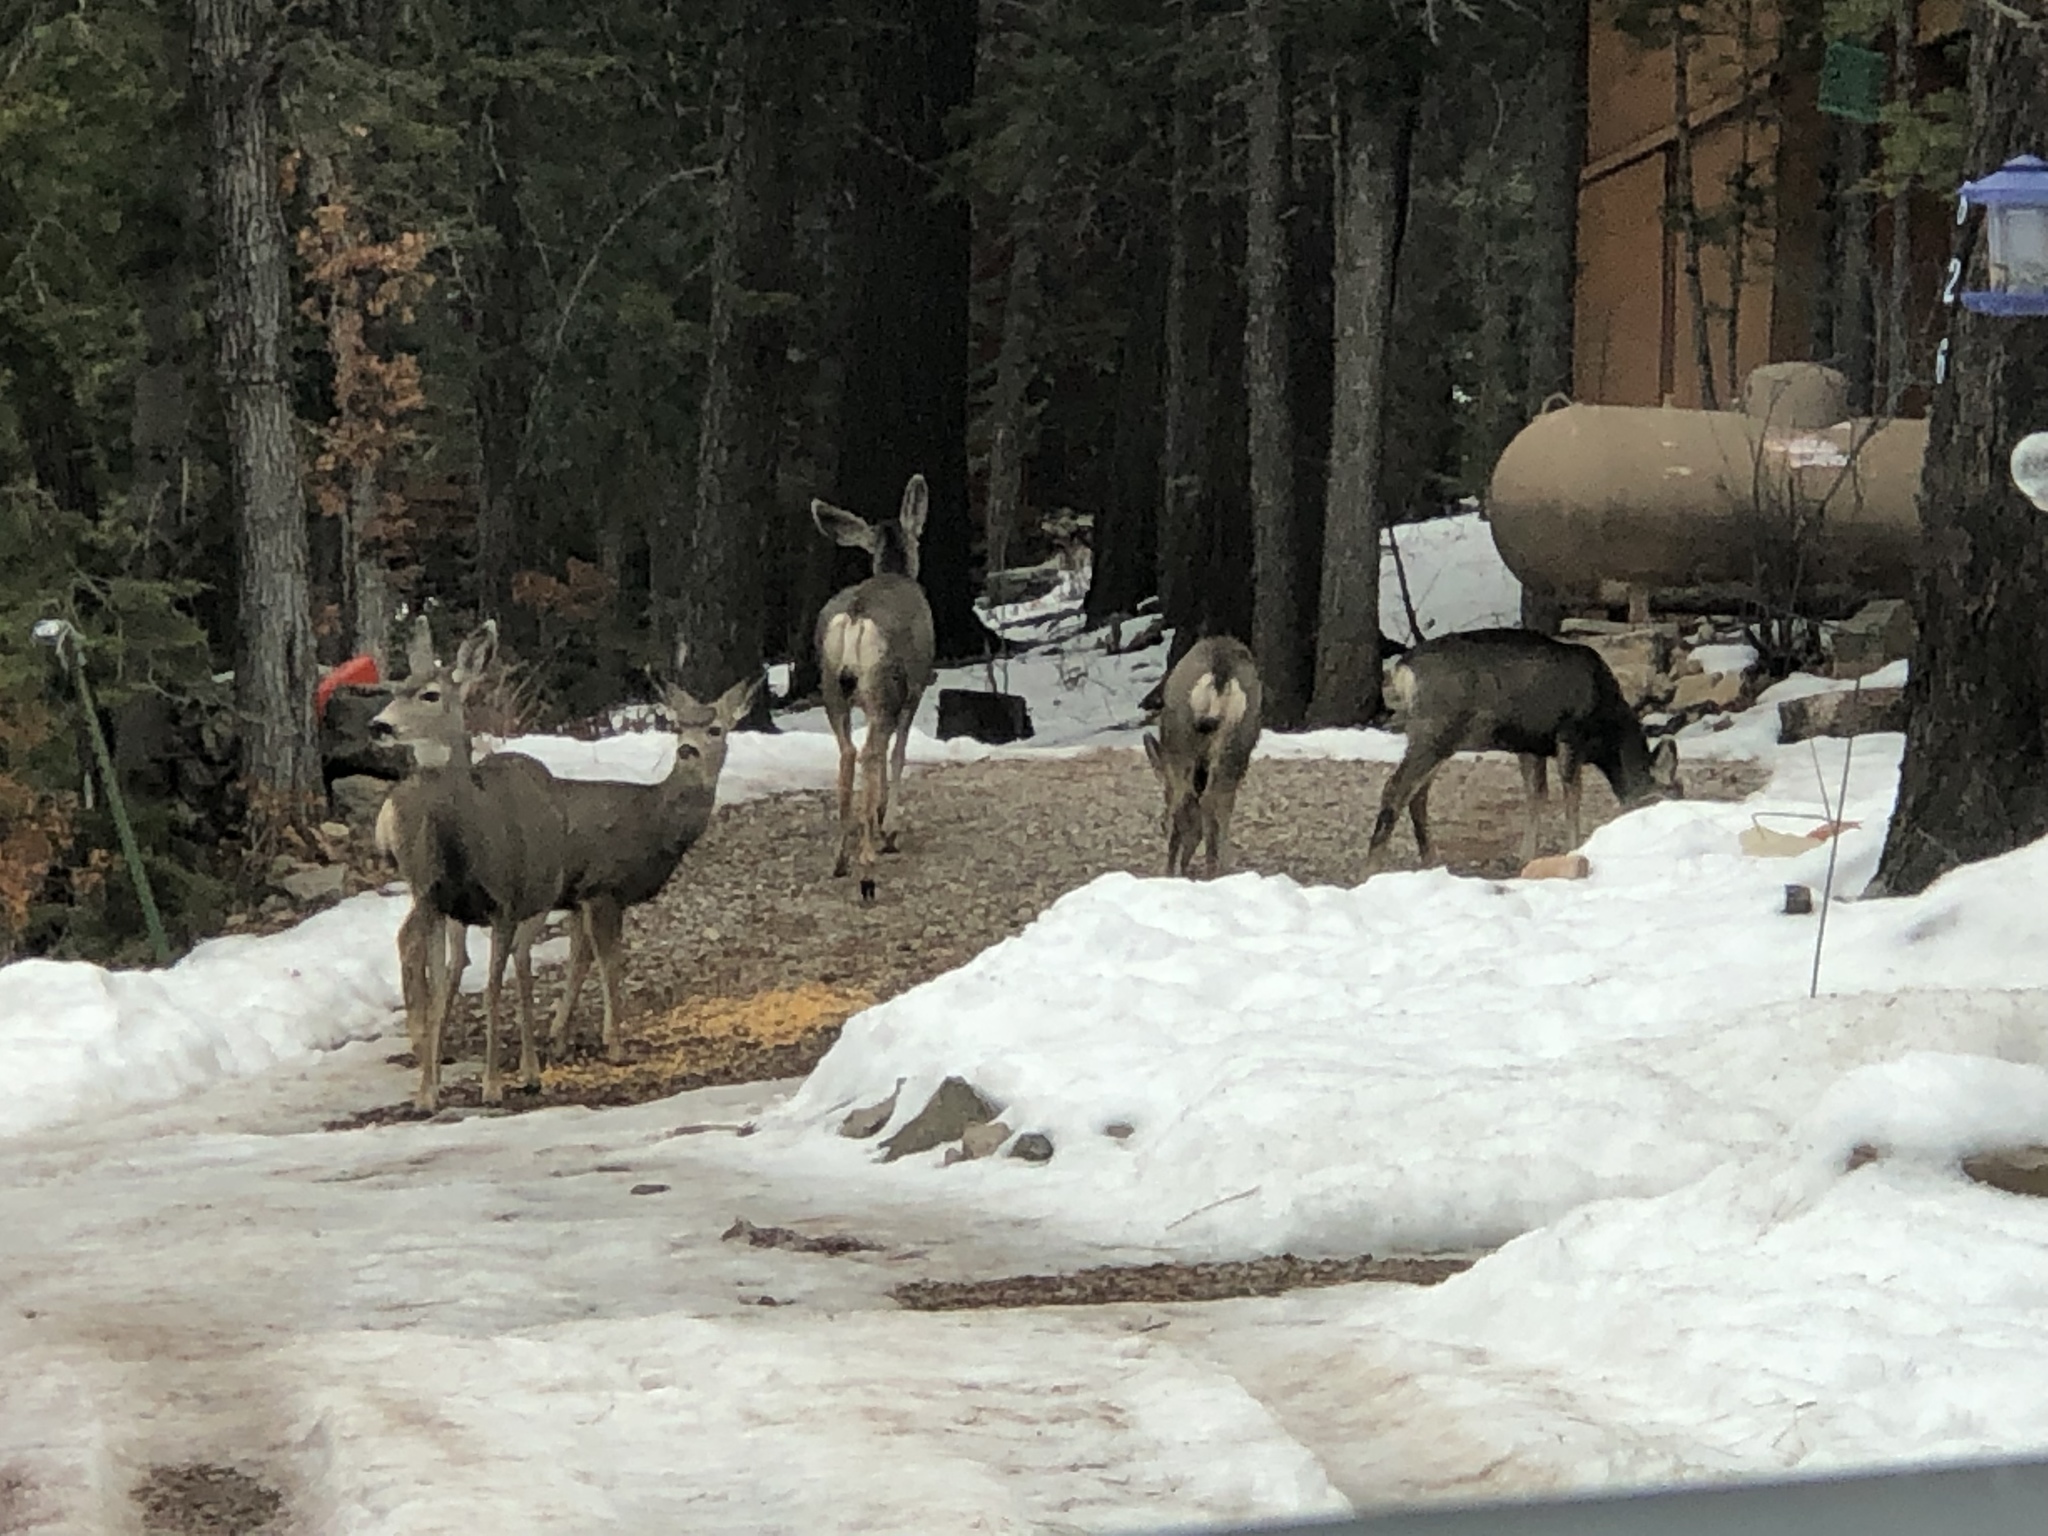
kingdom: Animalia
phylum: Chordata
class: Mammalia
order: Artiodactyla
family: Cervidae
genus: Odocoileus
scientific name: Odocoileus hemionus
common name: Mule deer
